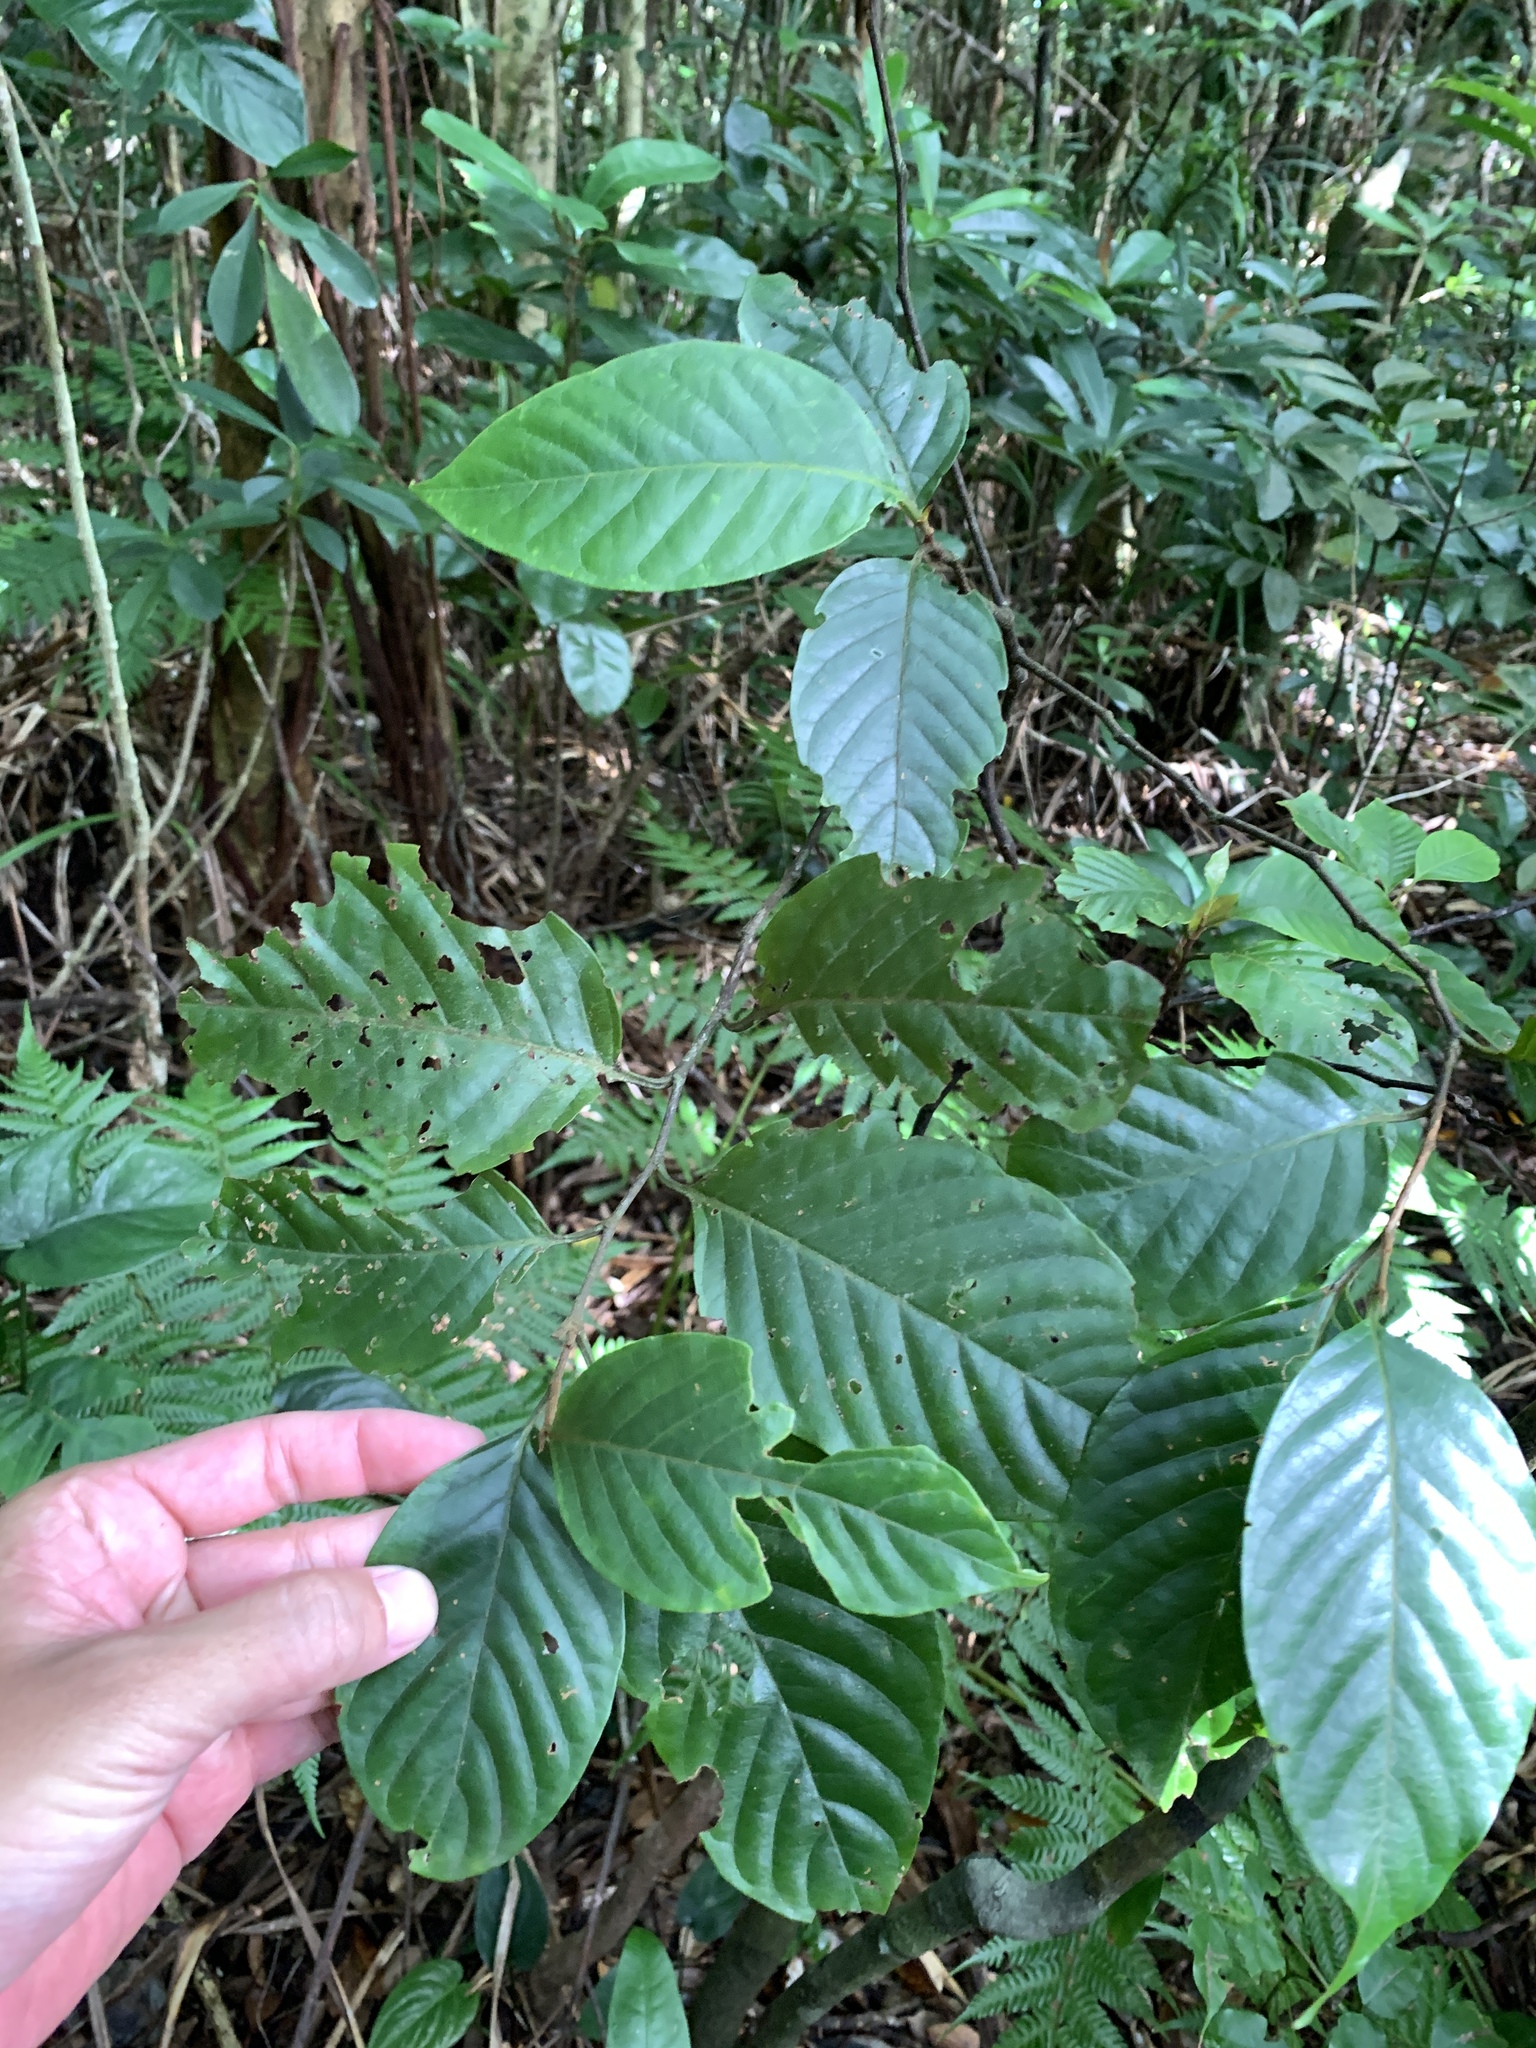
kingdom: Plantae
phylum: Tracheophyta
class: Magnoliopsida
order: Rosales
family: Rosaceae
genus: Prunus
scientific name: Prunus grisea
